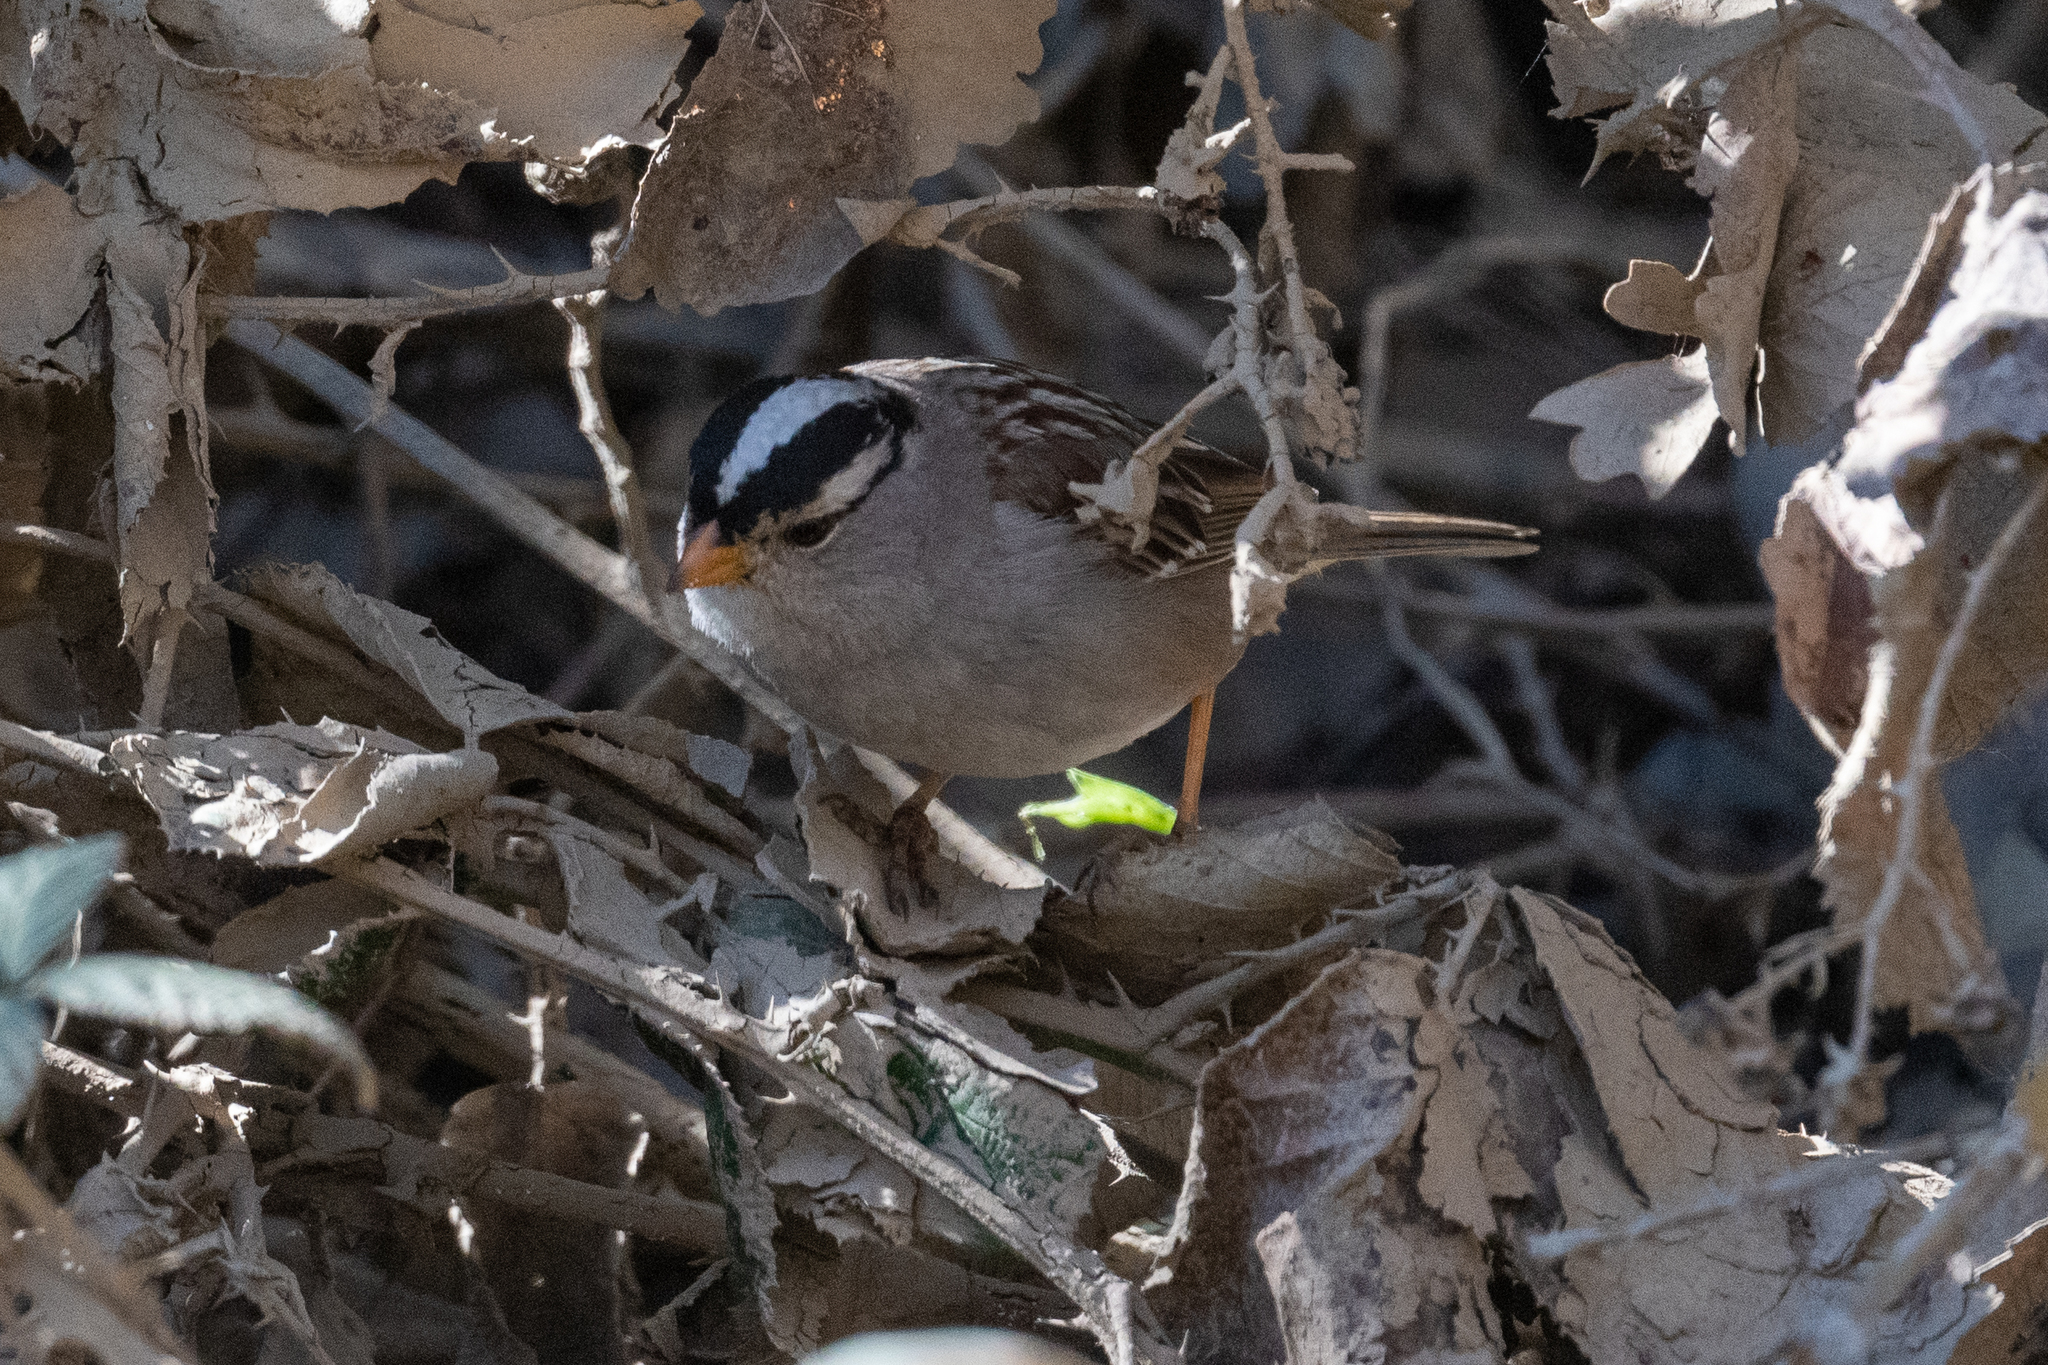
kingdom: Animalia
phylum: Chordata
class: Aves
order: Passeriformes
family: Passerellidae
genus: Zonotrichia
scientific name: Zonotrichia leucophrys
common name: White-crowned sparrow
